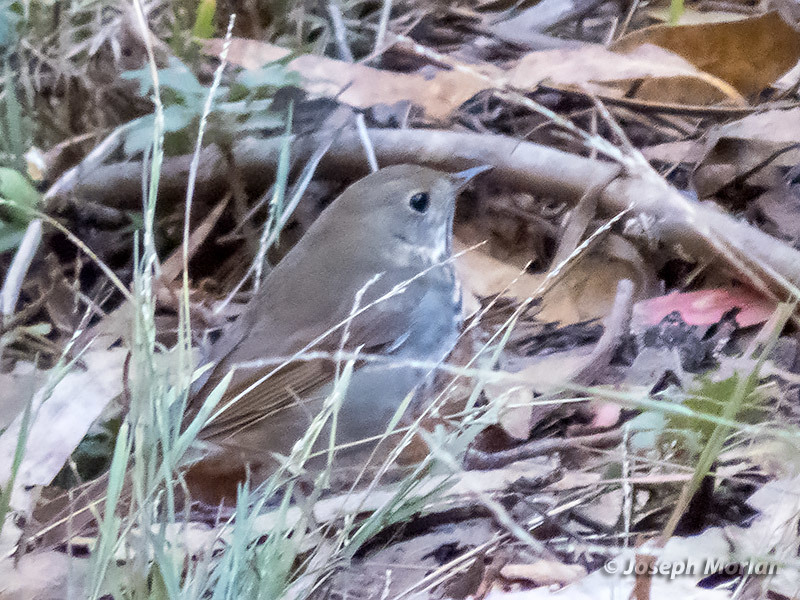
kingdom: Animalia
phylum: Chordata
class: Aves
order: Passeriformes
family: Turdidae
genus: Catharus
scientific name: Catharus guttatus
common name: Hermit thrush
